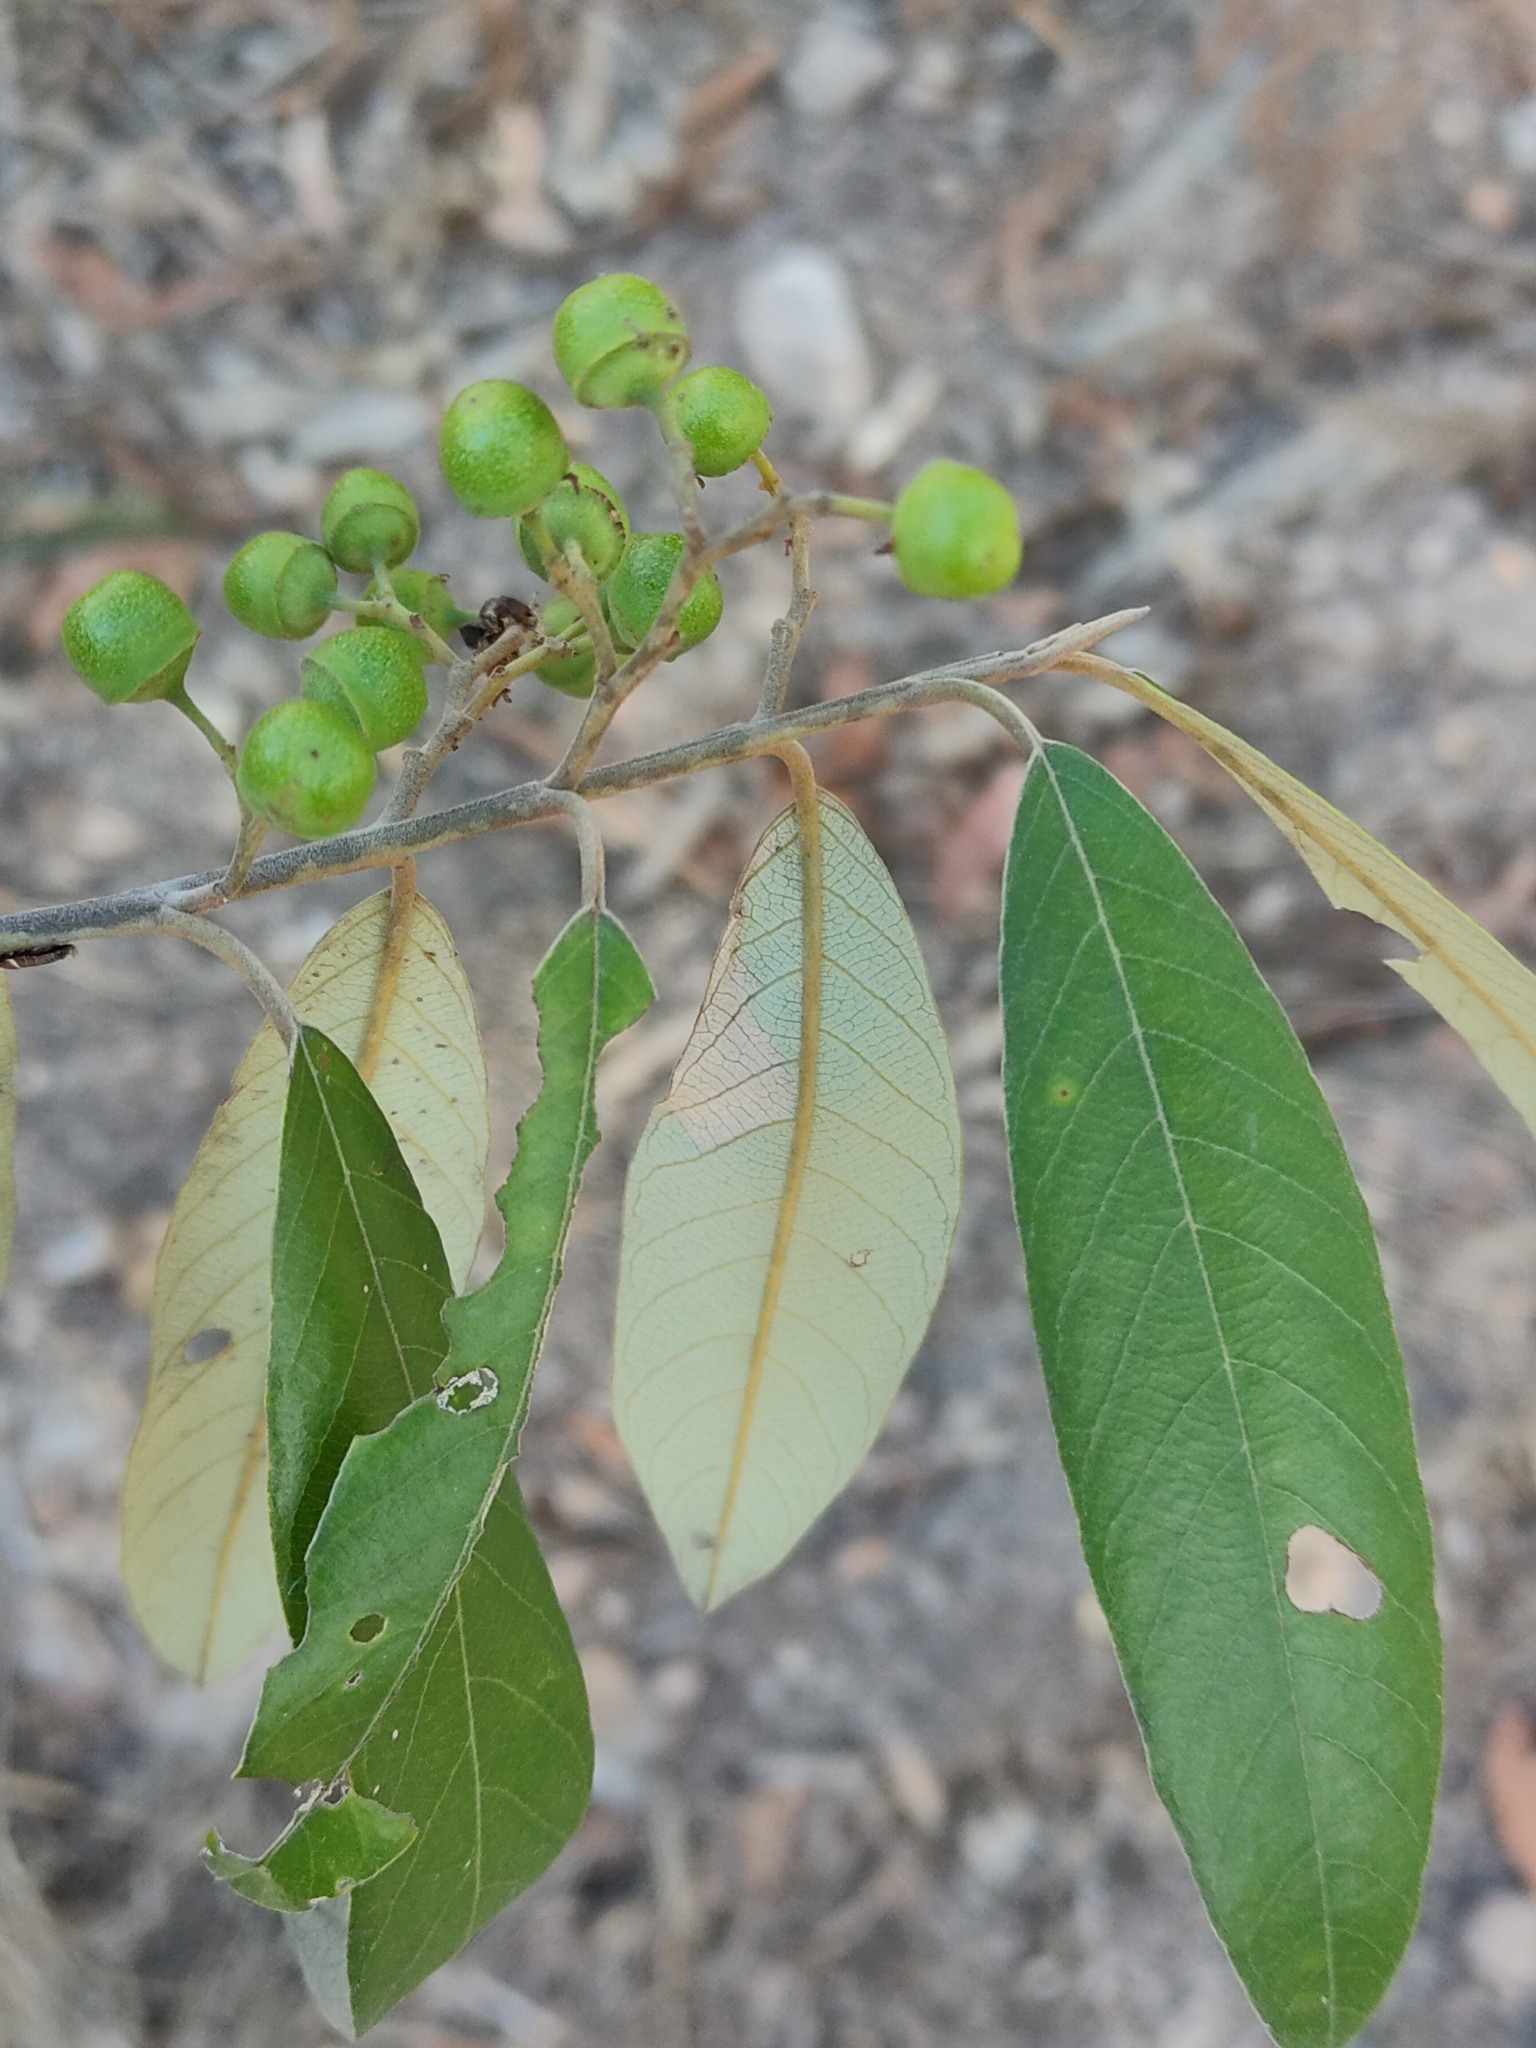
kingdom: Plantae
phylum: Tracheophyta
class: Magnoliopsida
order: Rosales
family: Rhamnaceae
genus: Alphitonia
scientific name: Alphitonia excelsa
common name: Red ash
